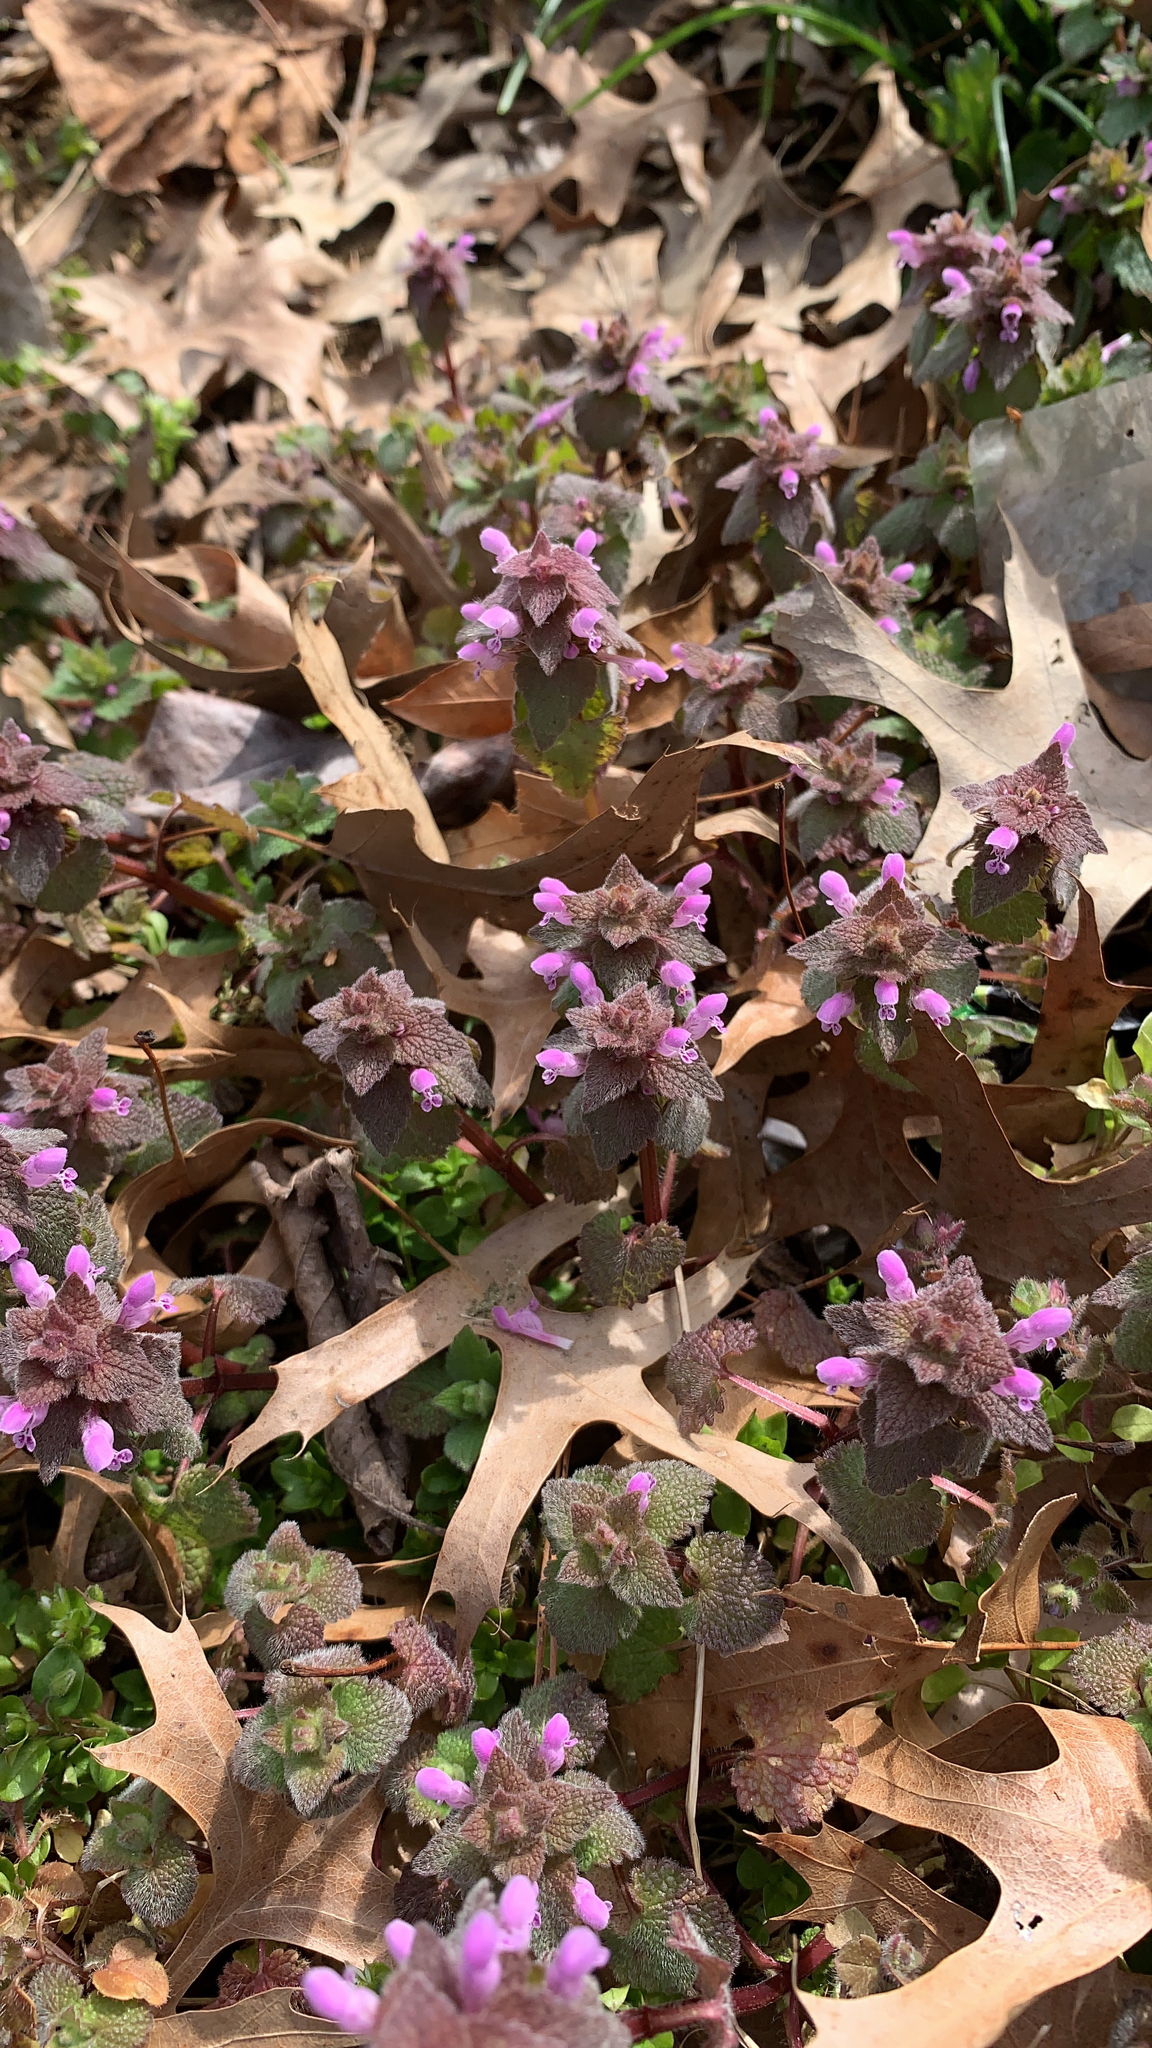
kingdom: Plantae
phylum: Tracheophyta
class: Magnoliopsida
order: Lamiales
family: Lamiaceae
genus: Lamium
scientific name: Lamium purpureum
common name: Red dead-nettle
